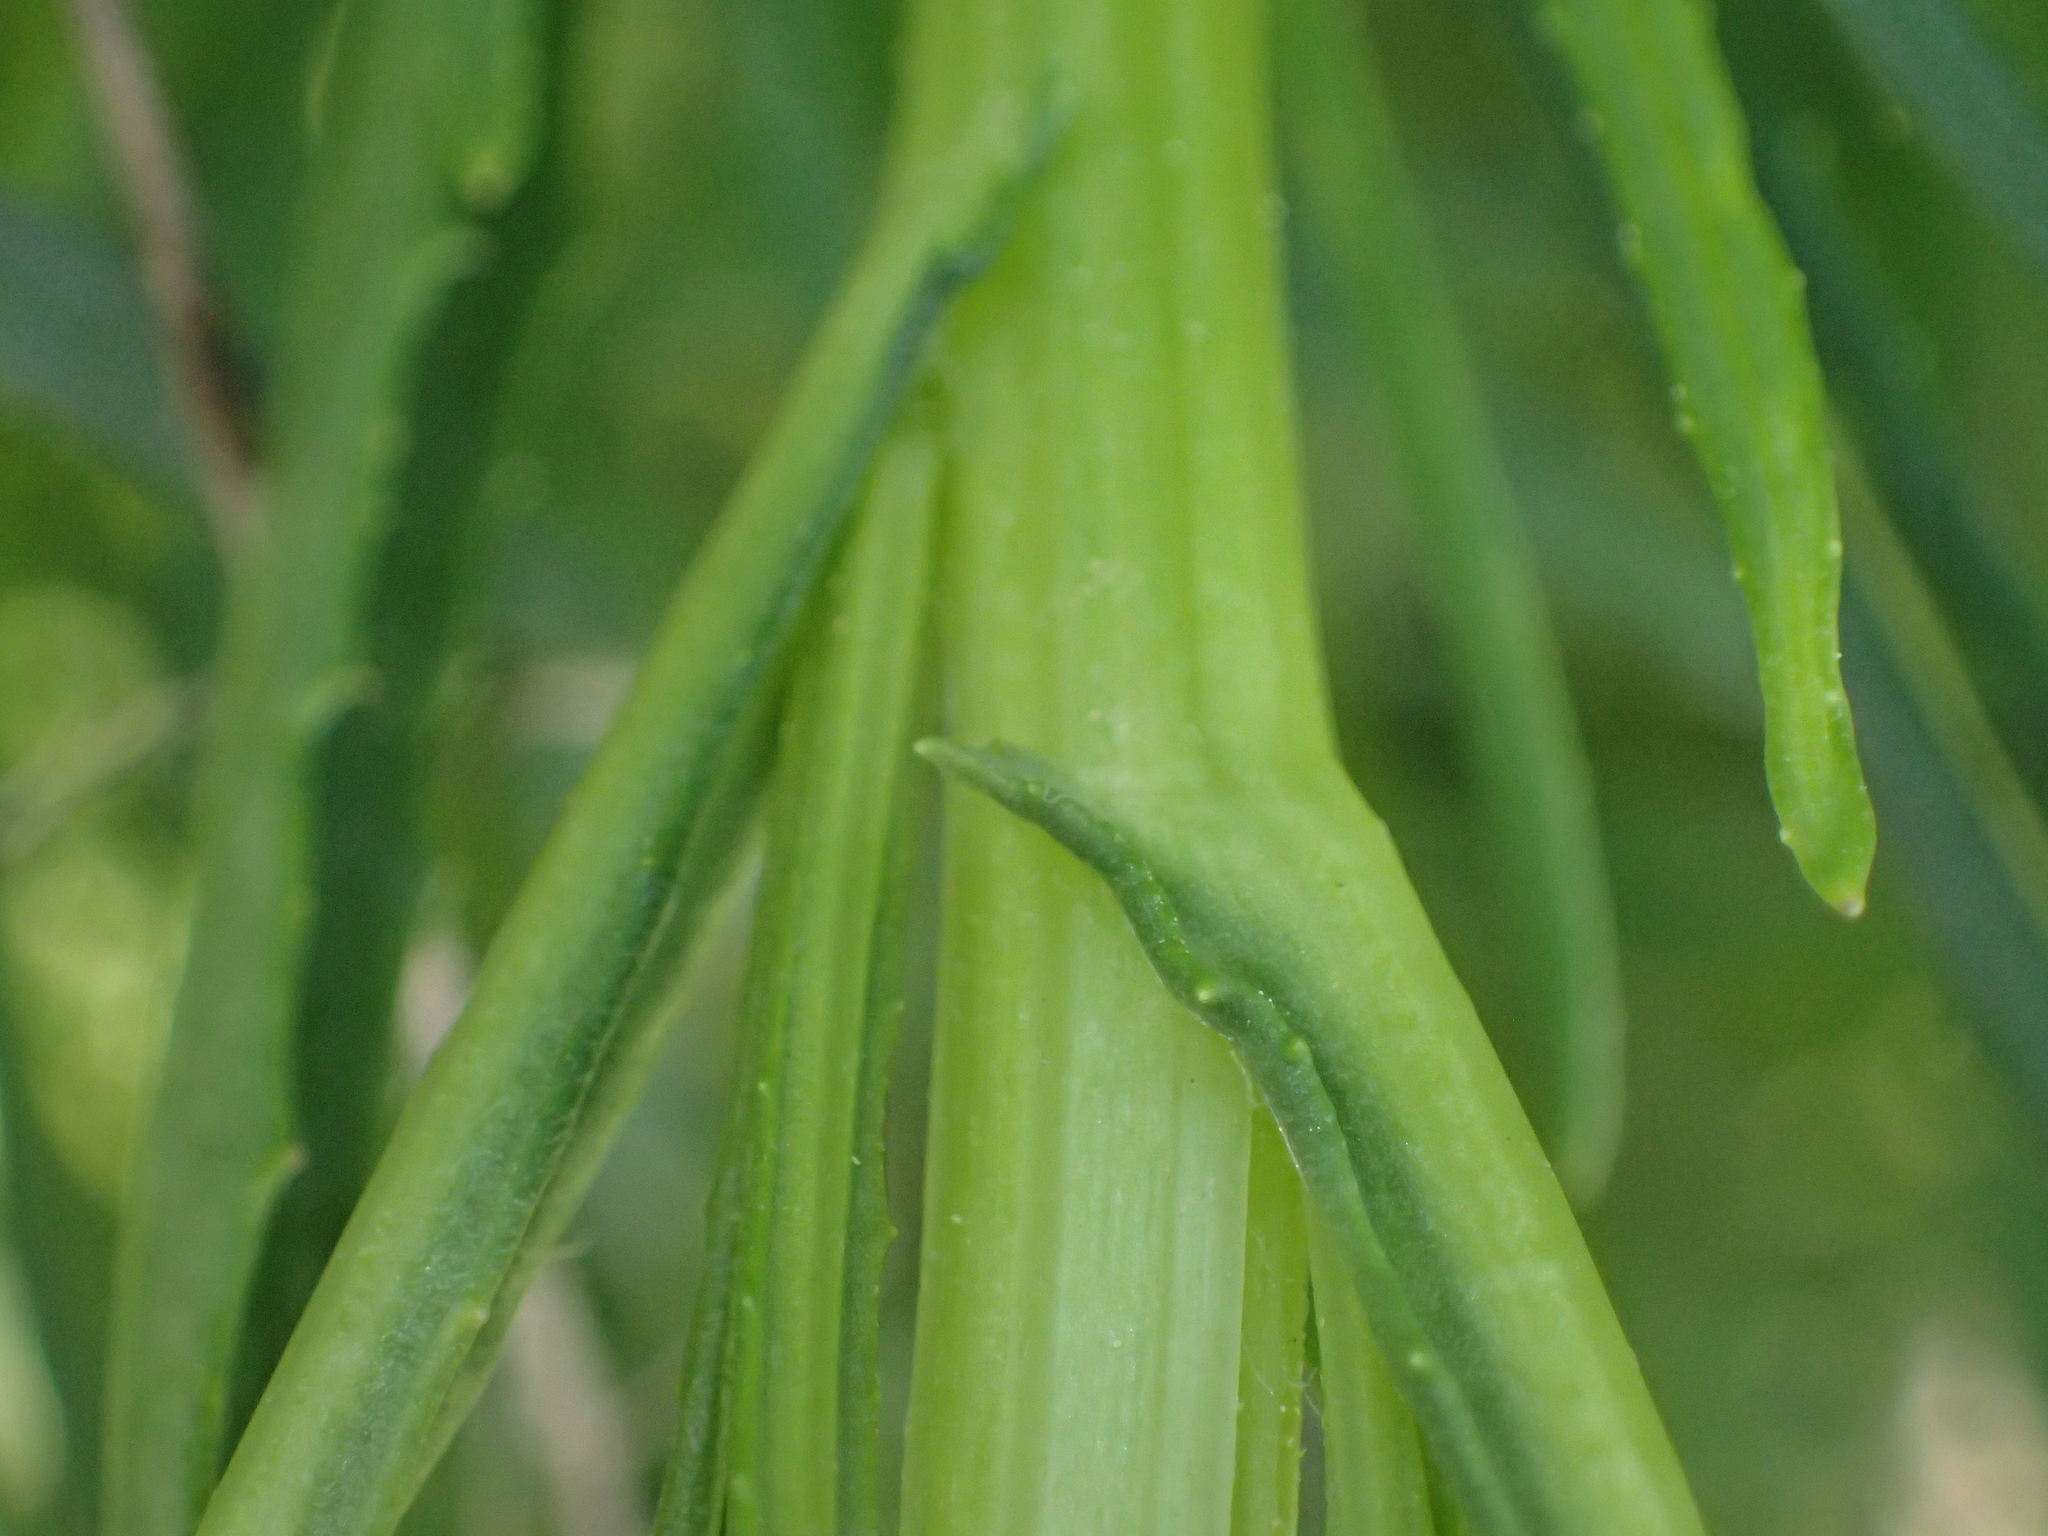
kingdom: Plantae
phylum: Tracheophyta
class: Magnoliopsida
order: Asterales
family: Asteraceae
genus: Senecio
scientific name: Senecio inaequidens
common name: Narrow-leaved ragwort
